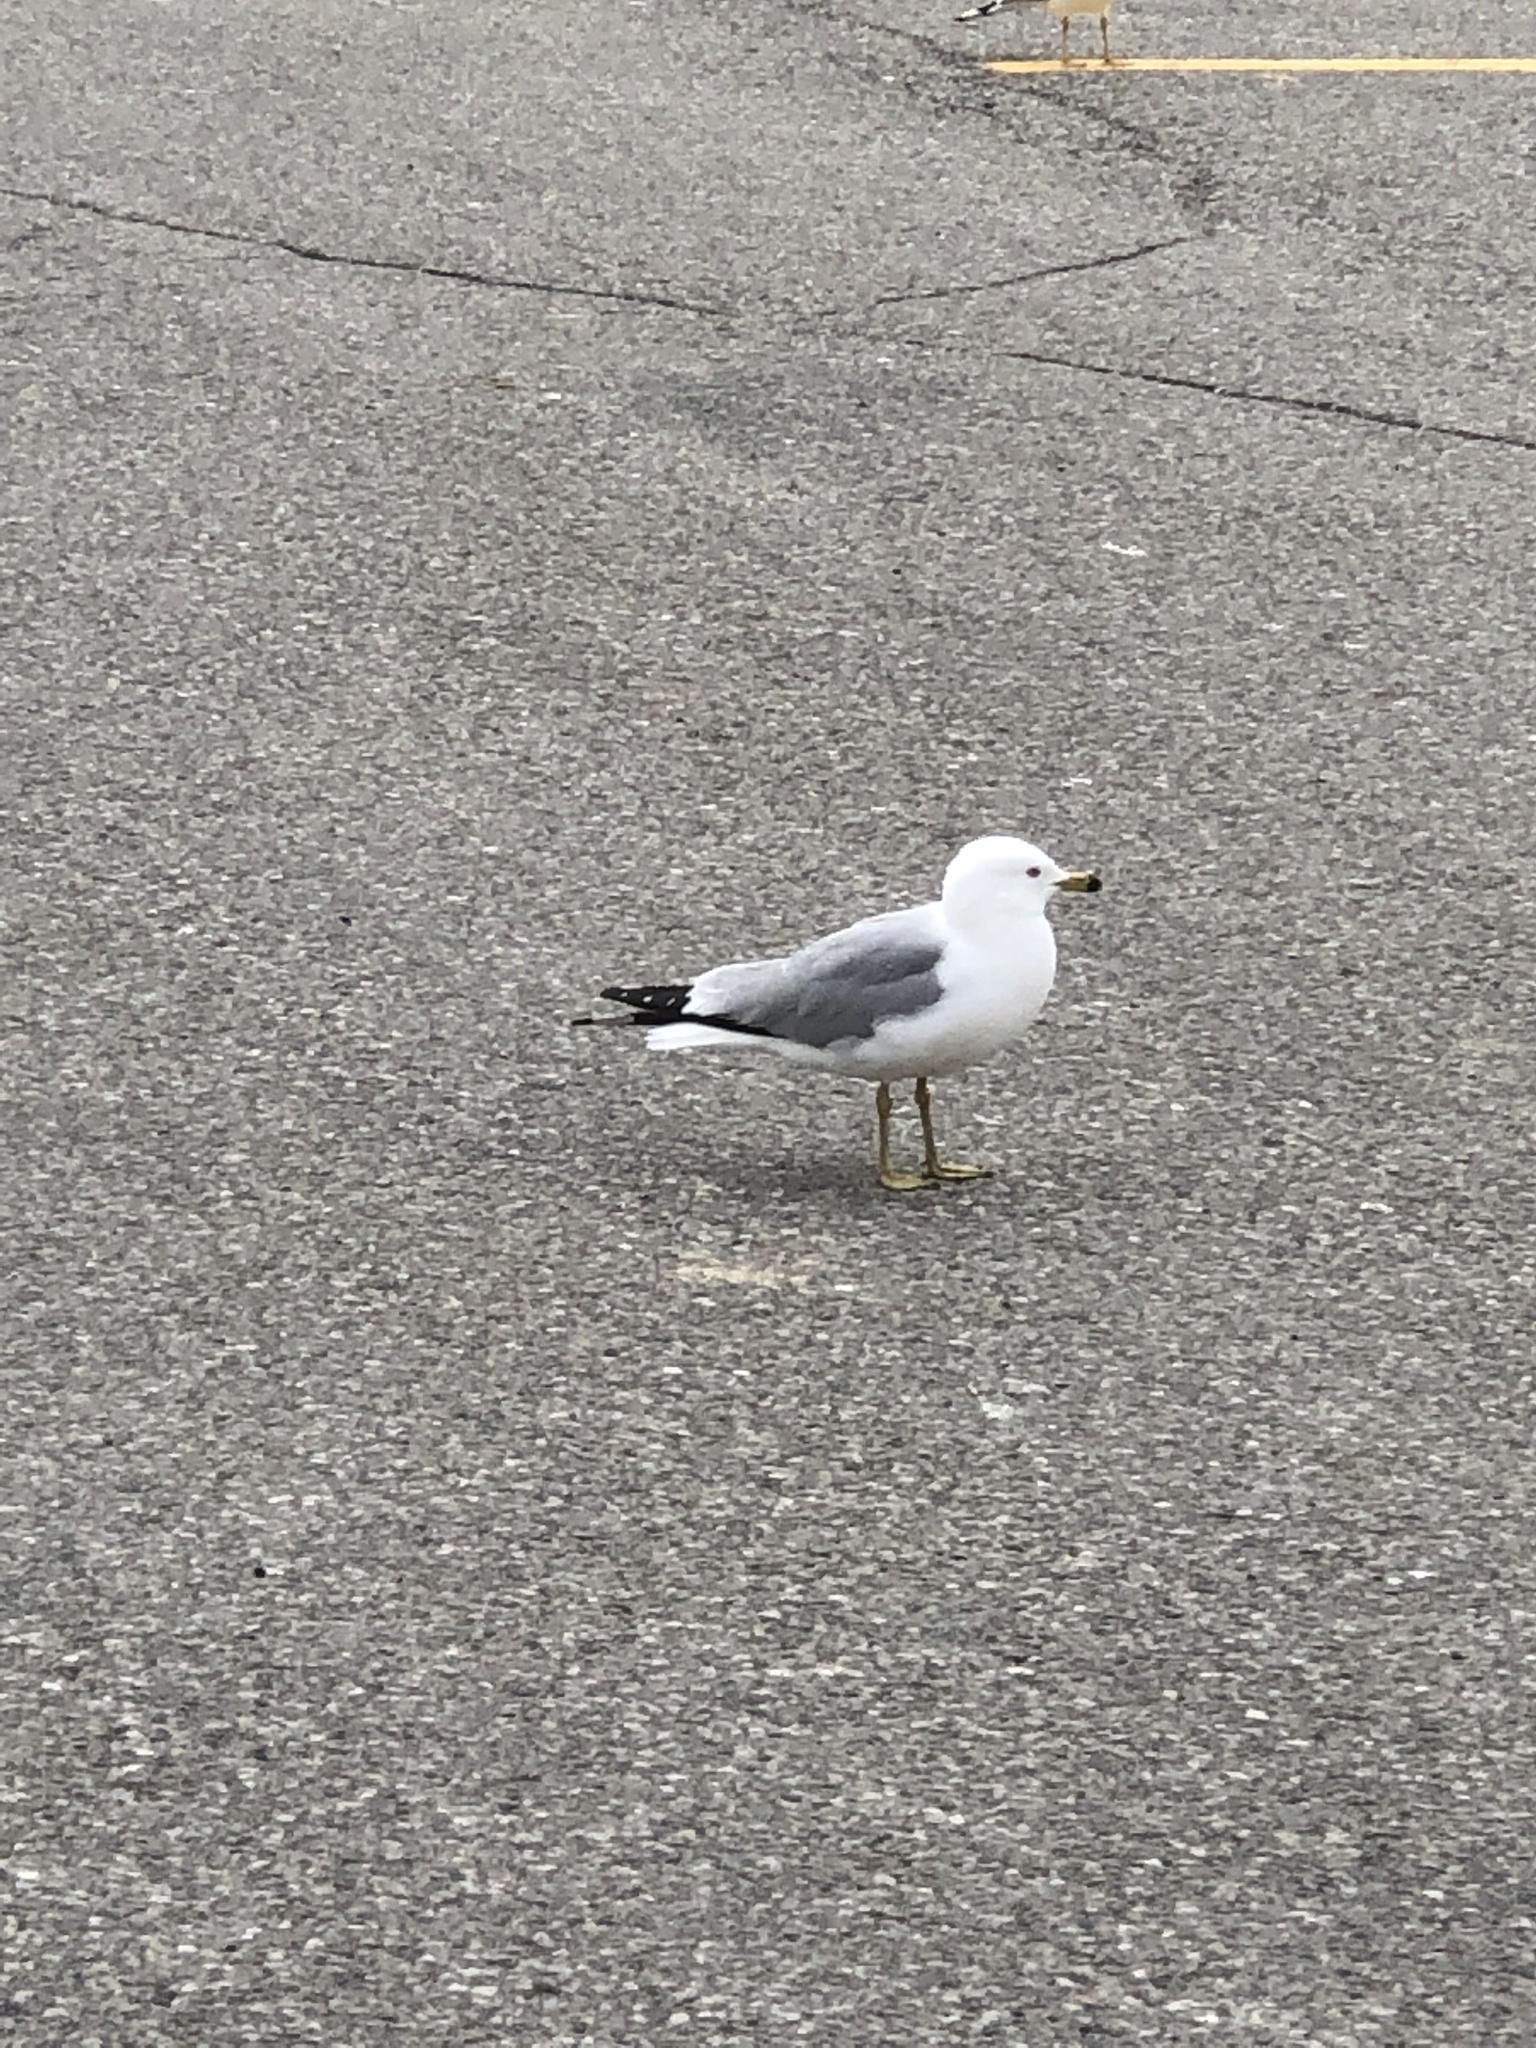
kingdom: Animalia
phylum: Chordata
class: Aves
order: Charadriiformes
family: Laridae
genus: Larus
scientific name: Larus delawarensis
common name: Ring-billed gull
